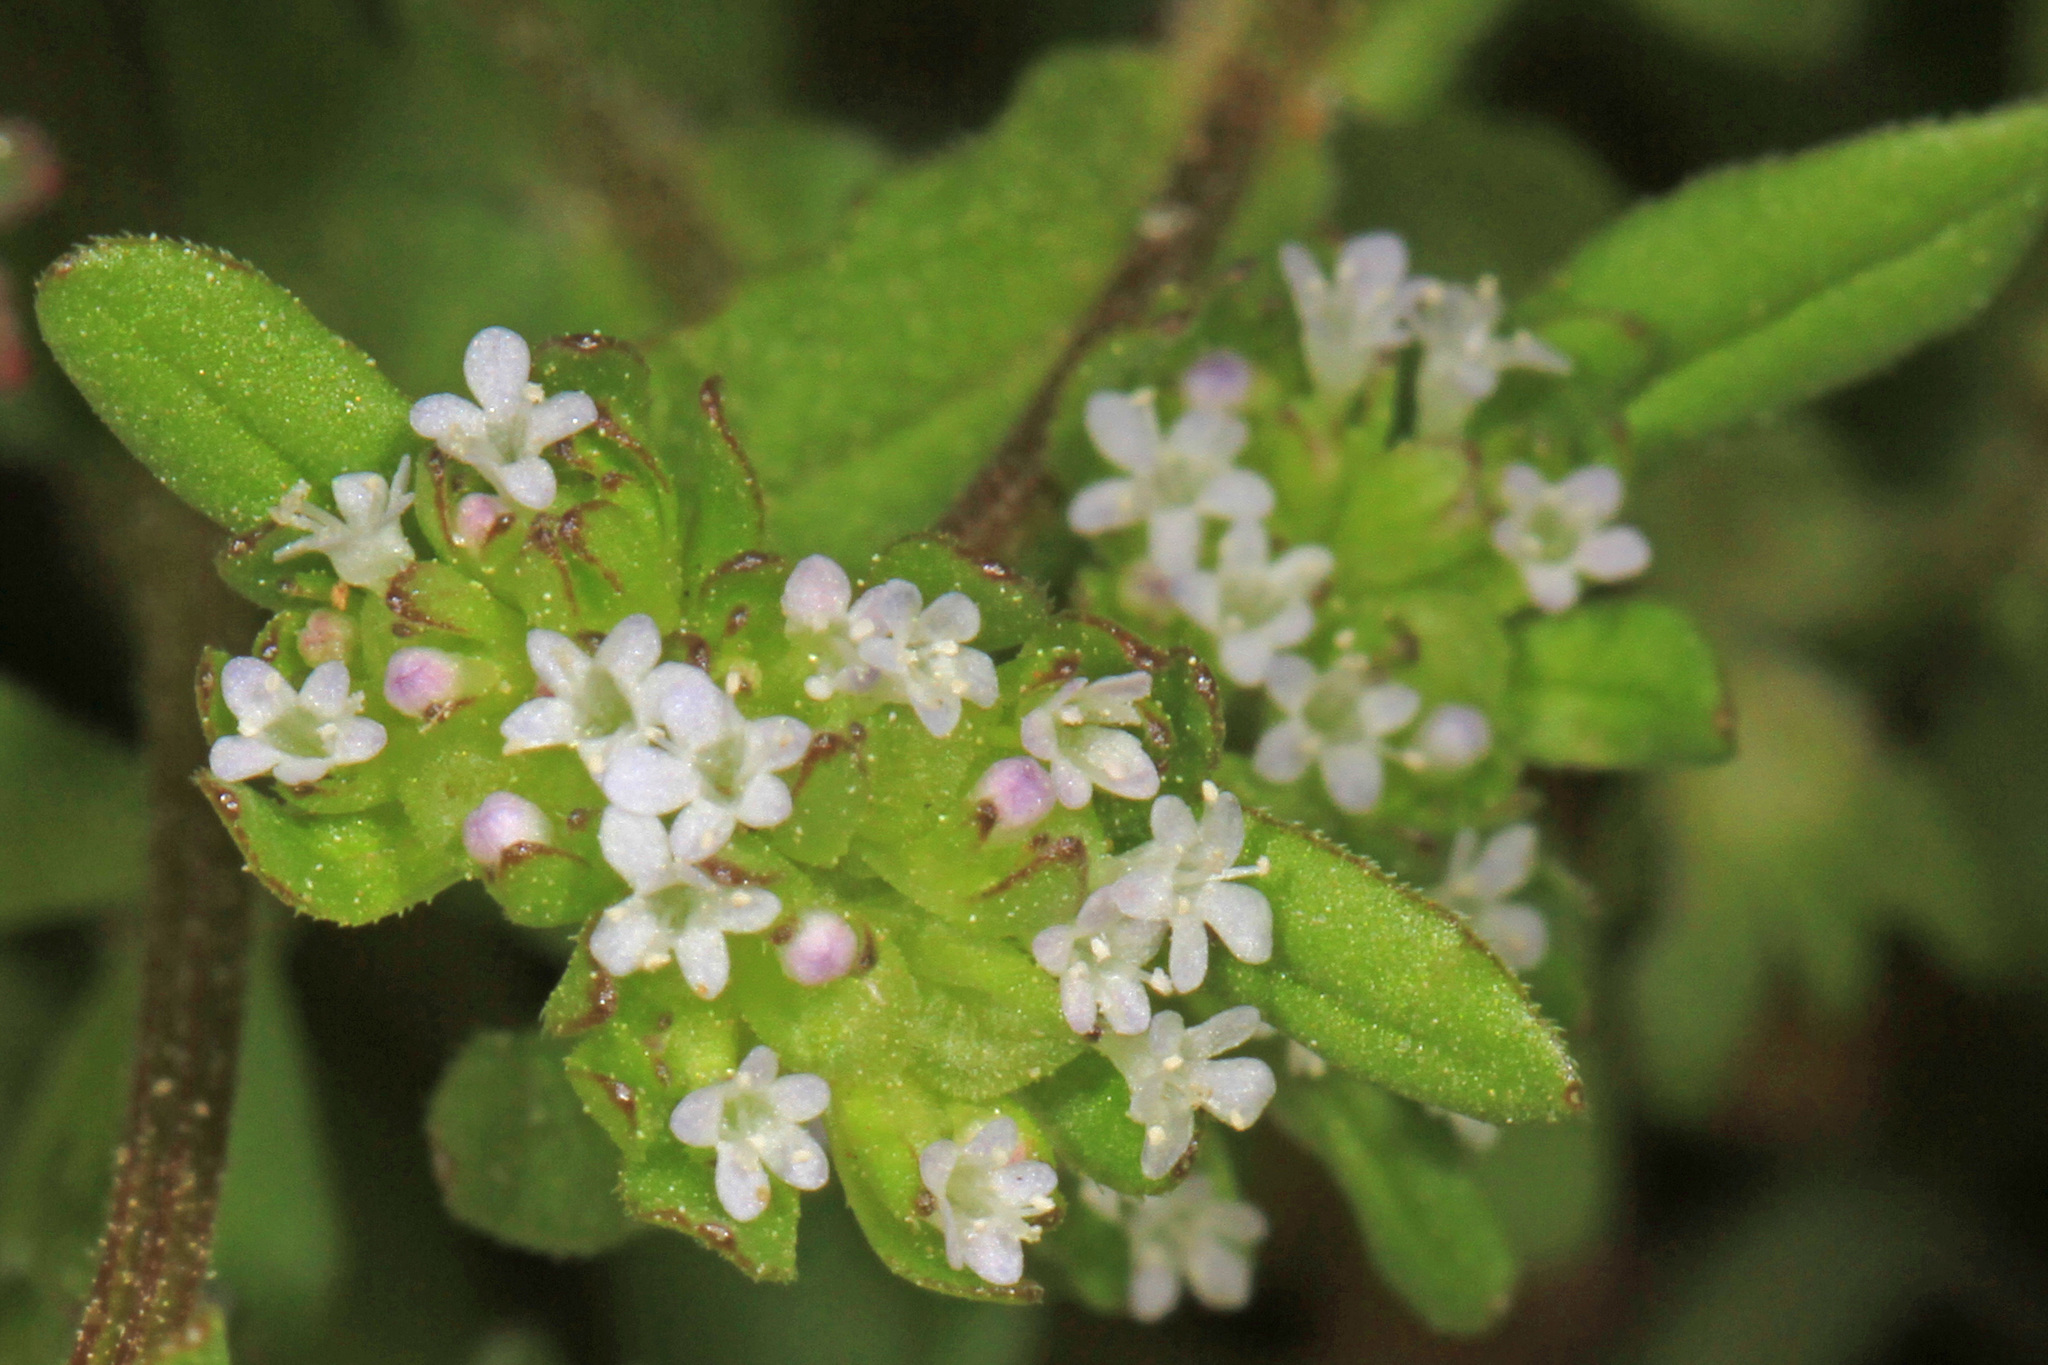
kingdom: Plantae
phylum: Tracheophyta
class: Magnoliopsida
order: Dipsacales
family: Caprifoliaceae
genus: Valerianella
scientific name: Valerianella locusta
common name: Common cornsalad
